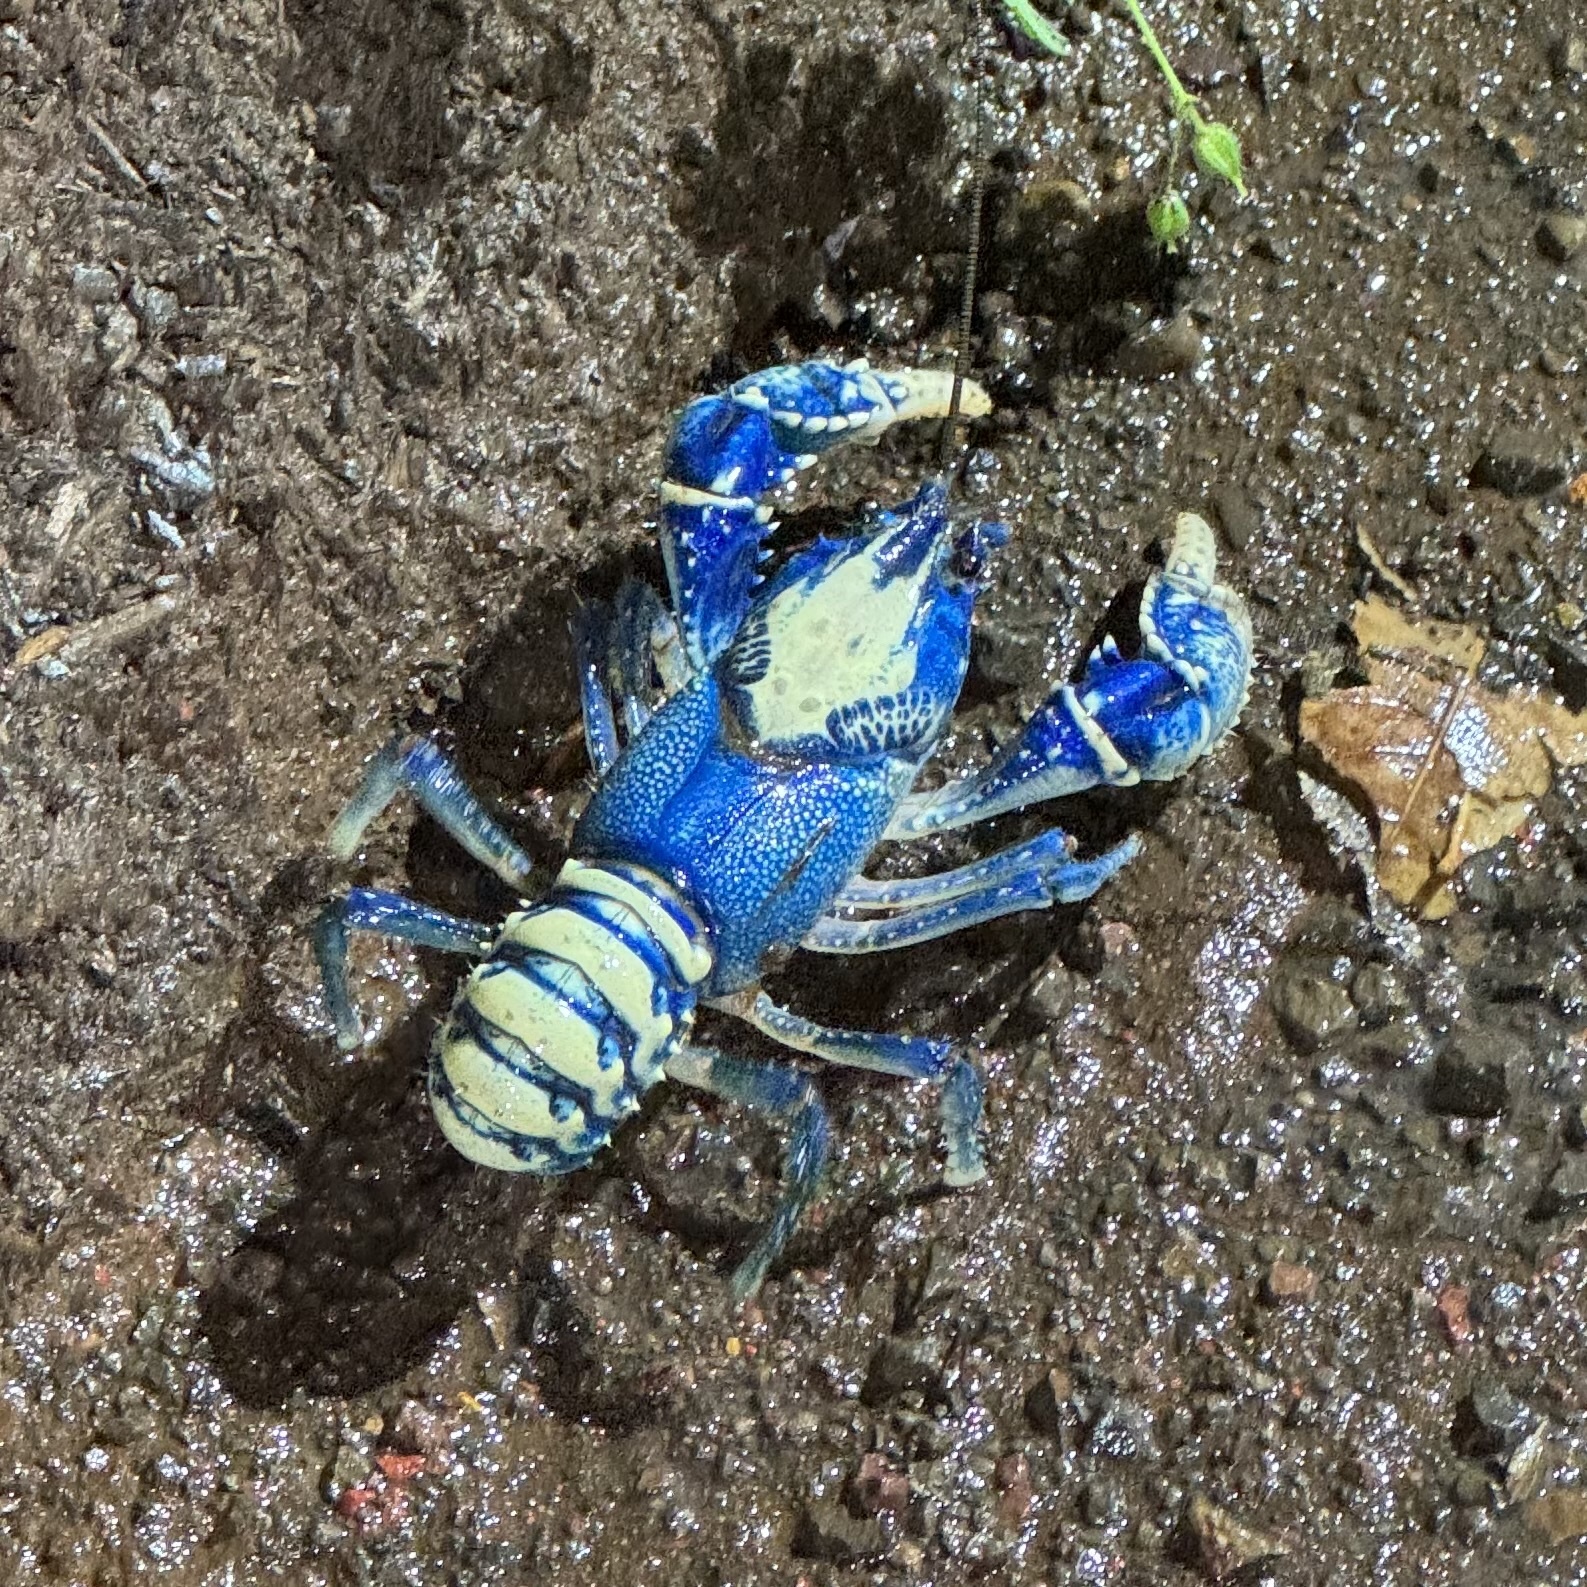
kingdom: Animalia
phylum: Arthropoda
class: Malacostraca
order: Decapoda
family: Parastacidae
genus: Euastacus
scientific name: Euastacus sulcatus
